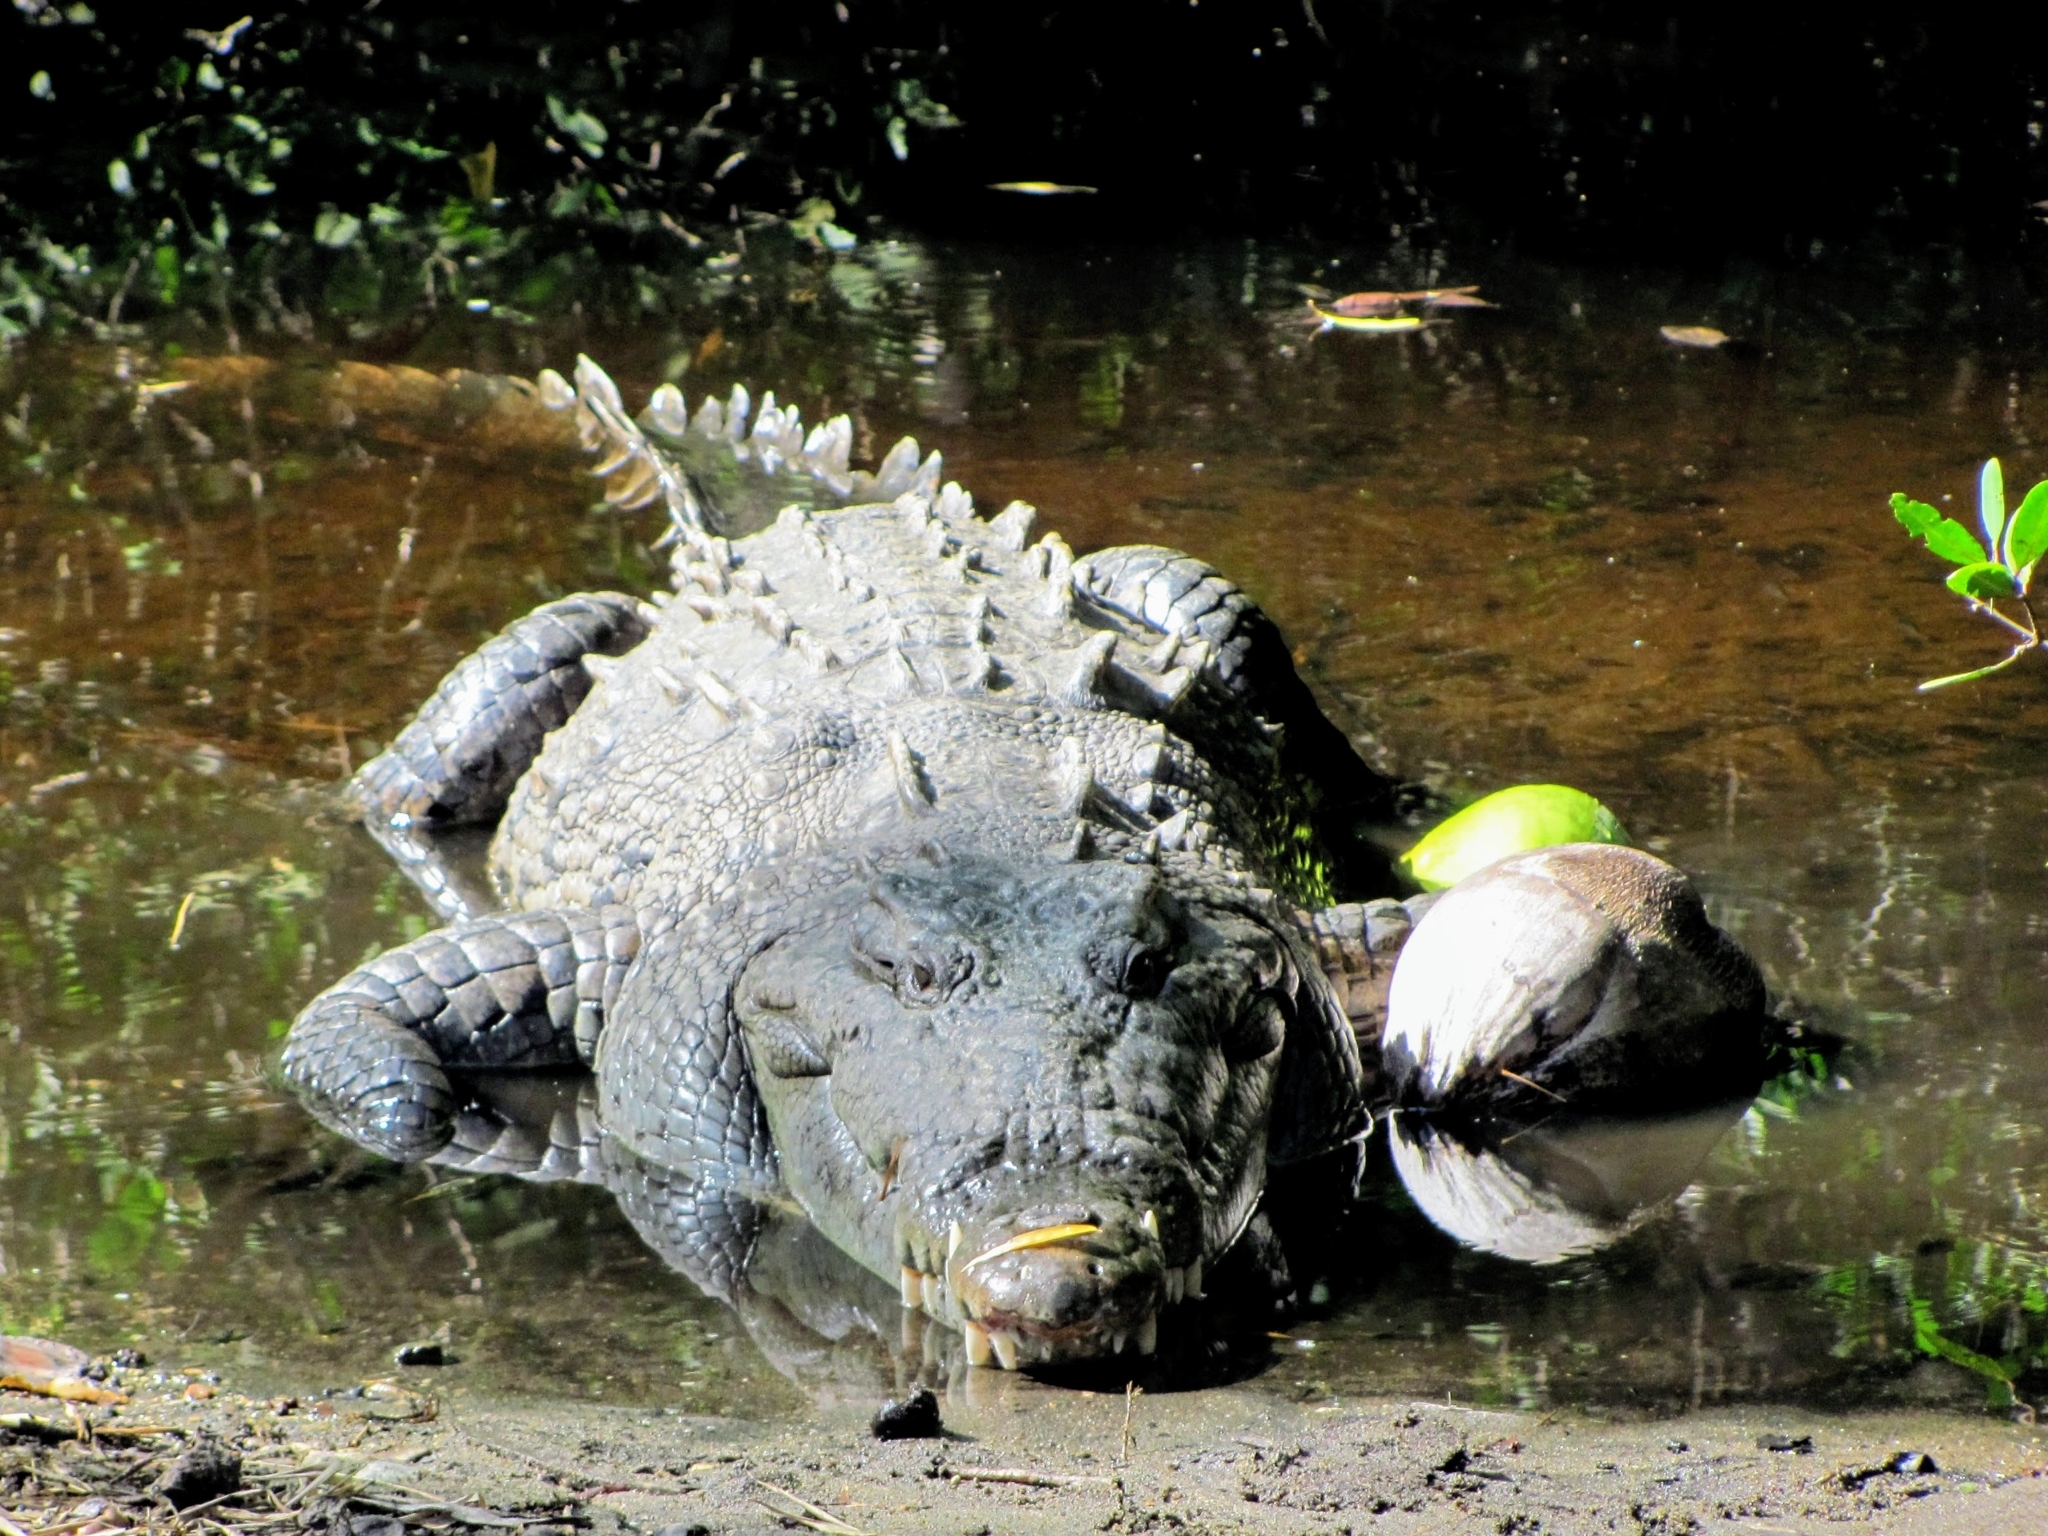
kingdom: Animalia
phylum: Chordata
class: Crocodylia
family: Crocodylidae
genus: Crocodylus
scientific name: Crocodylus acutus
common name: American crocodile
